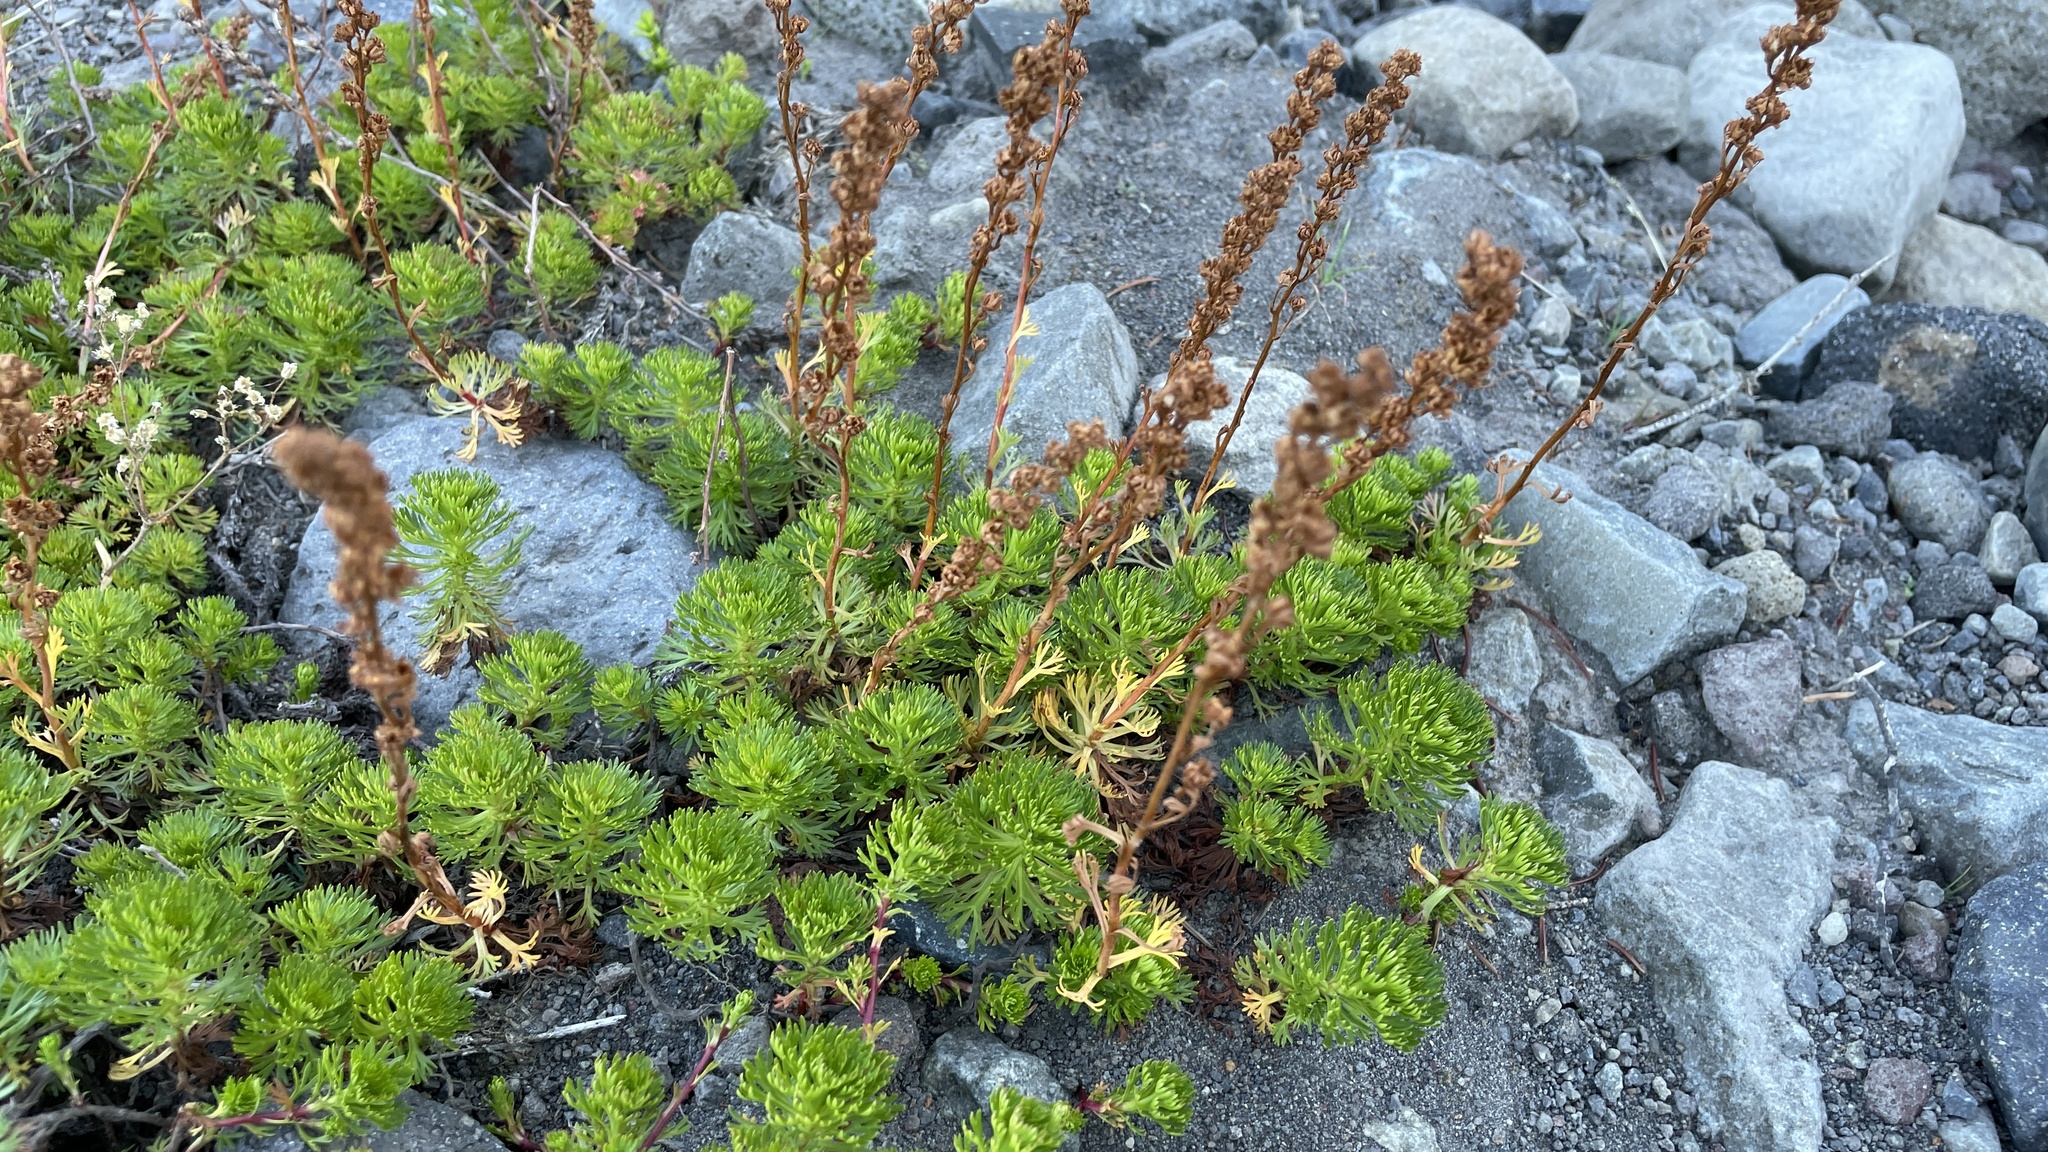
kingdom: Plantae
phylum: Tracheophyta
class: Magnoliopsida
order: Rosales
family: Rosaceae
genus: Luetkea
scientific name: Luetkea pectinata
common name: Partridgefoot
